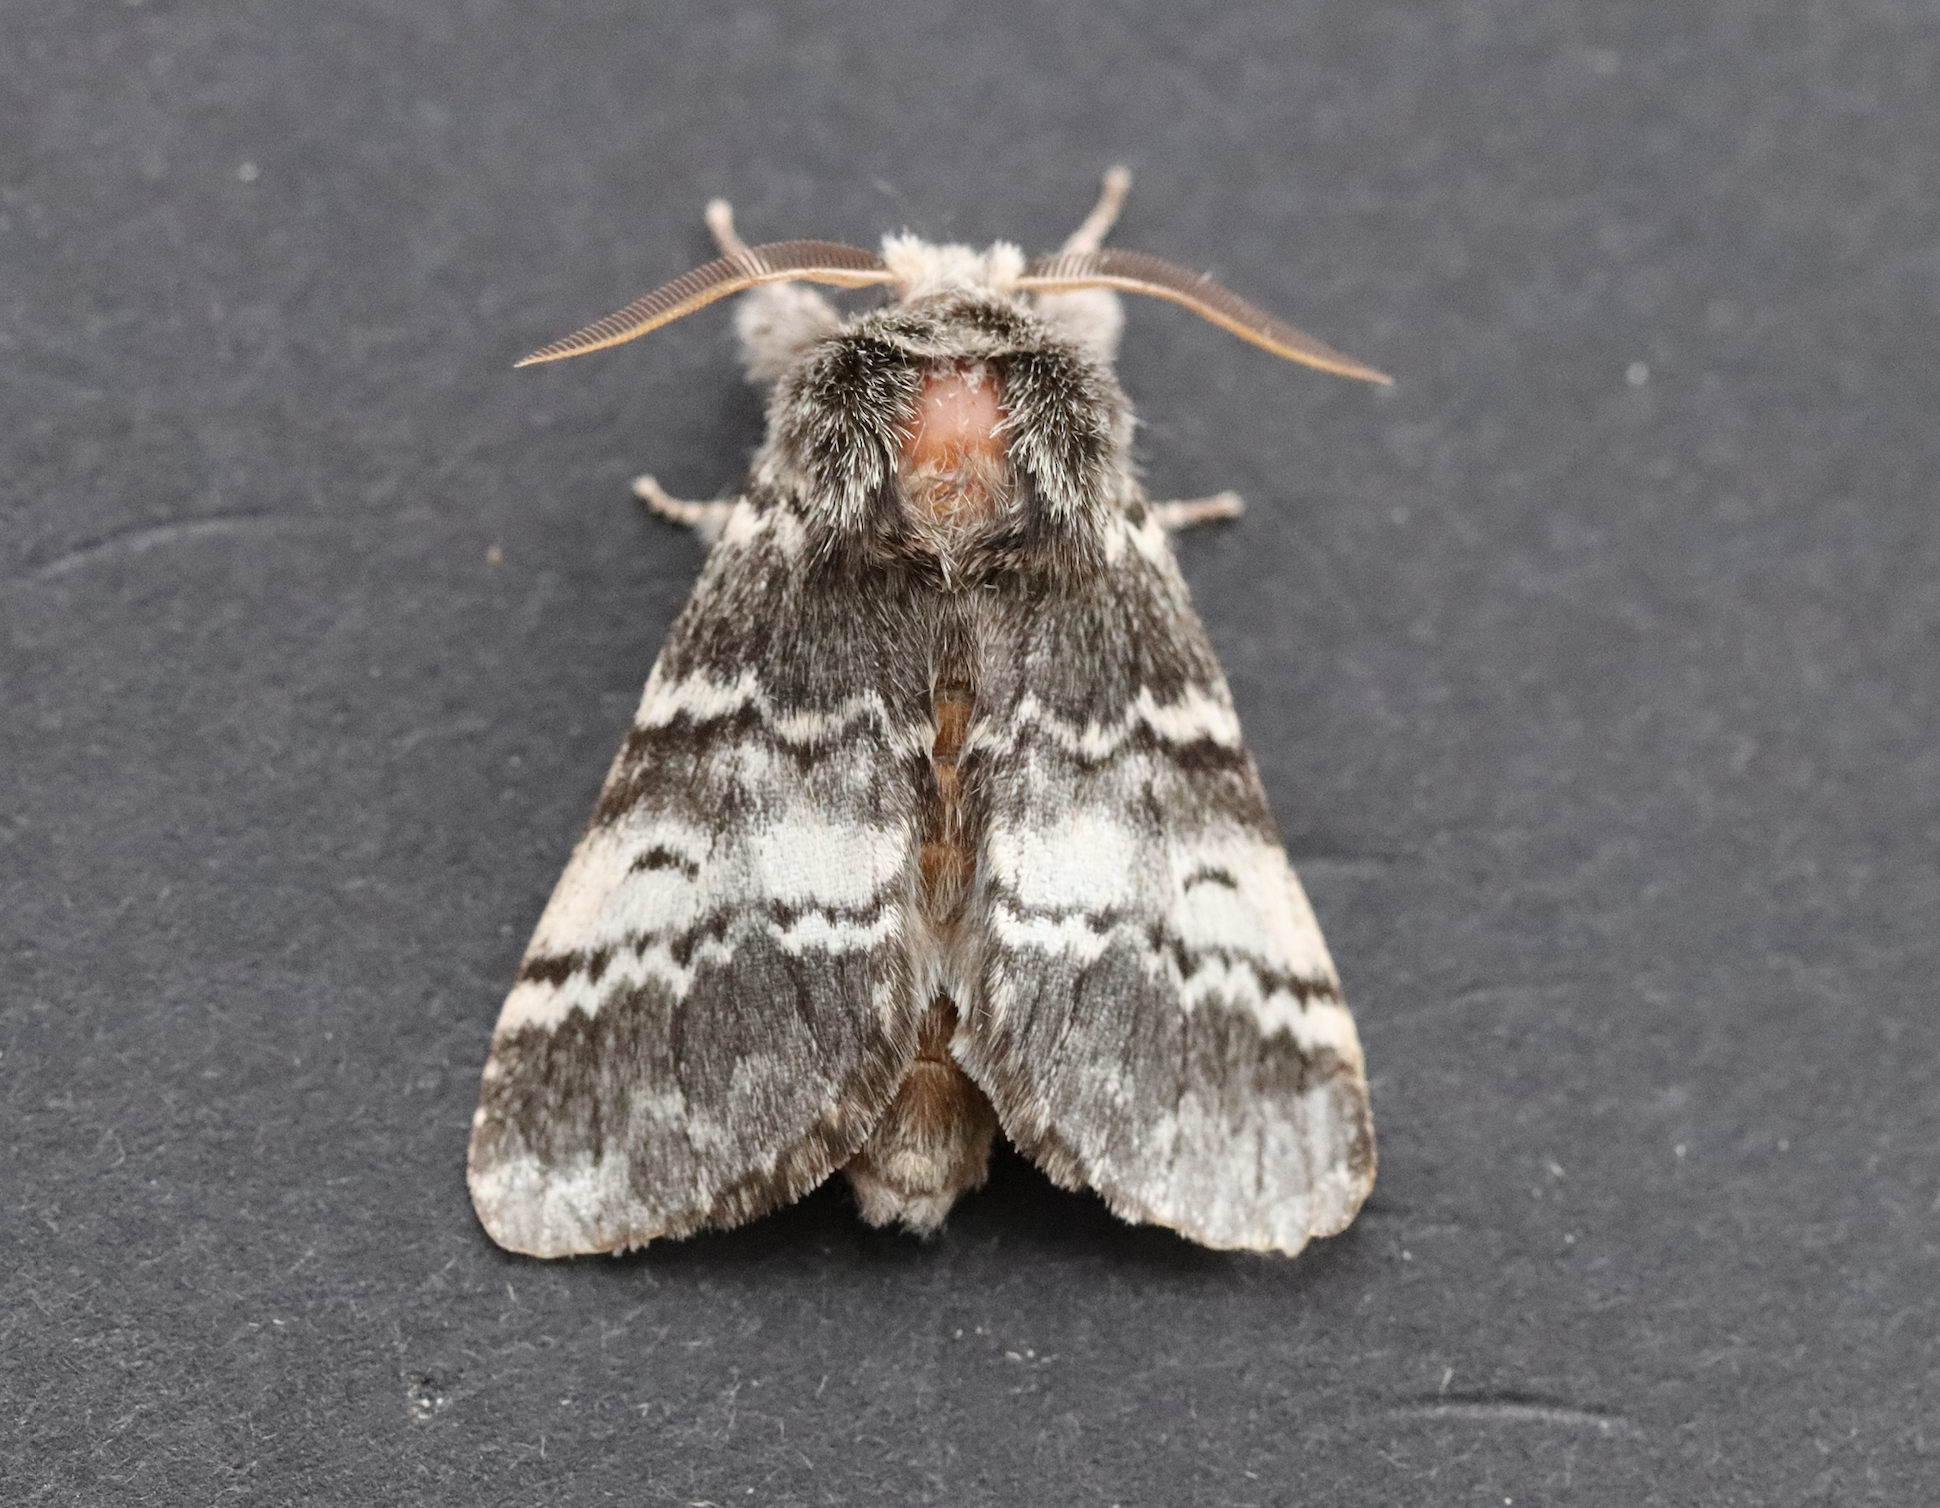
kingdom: Animalia
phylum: Arthropoda
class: Insecta
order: Lepidoptera
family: Notodontidae
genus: Drymonia
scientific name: Drymonia ruficornis
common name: Lunar marbled brown
